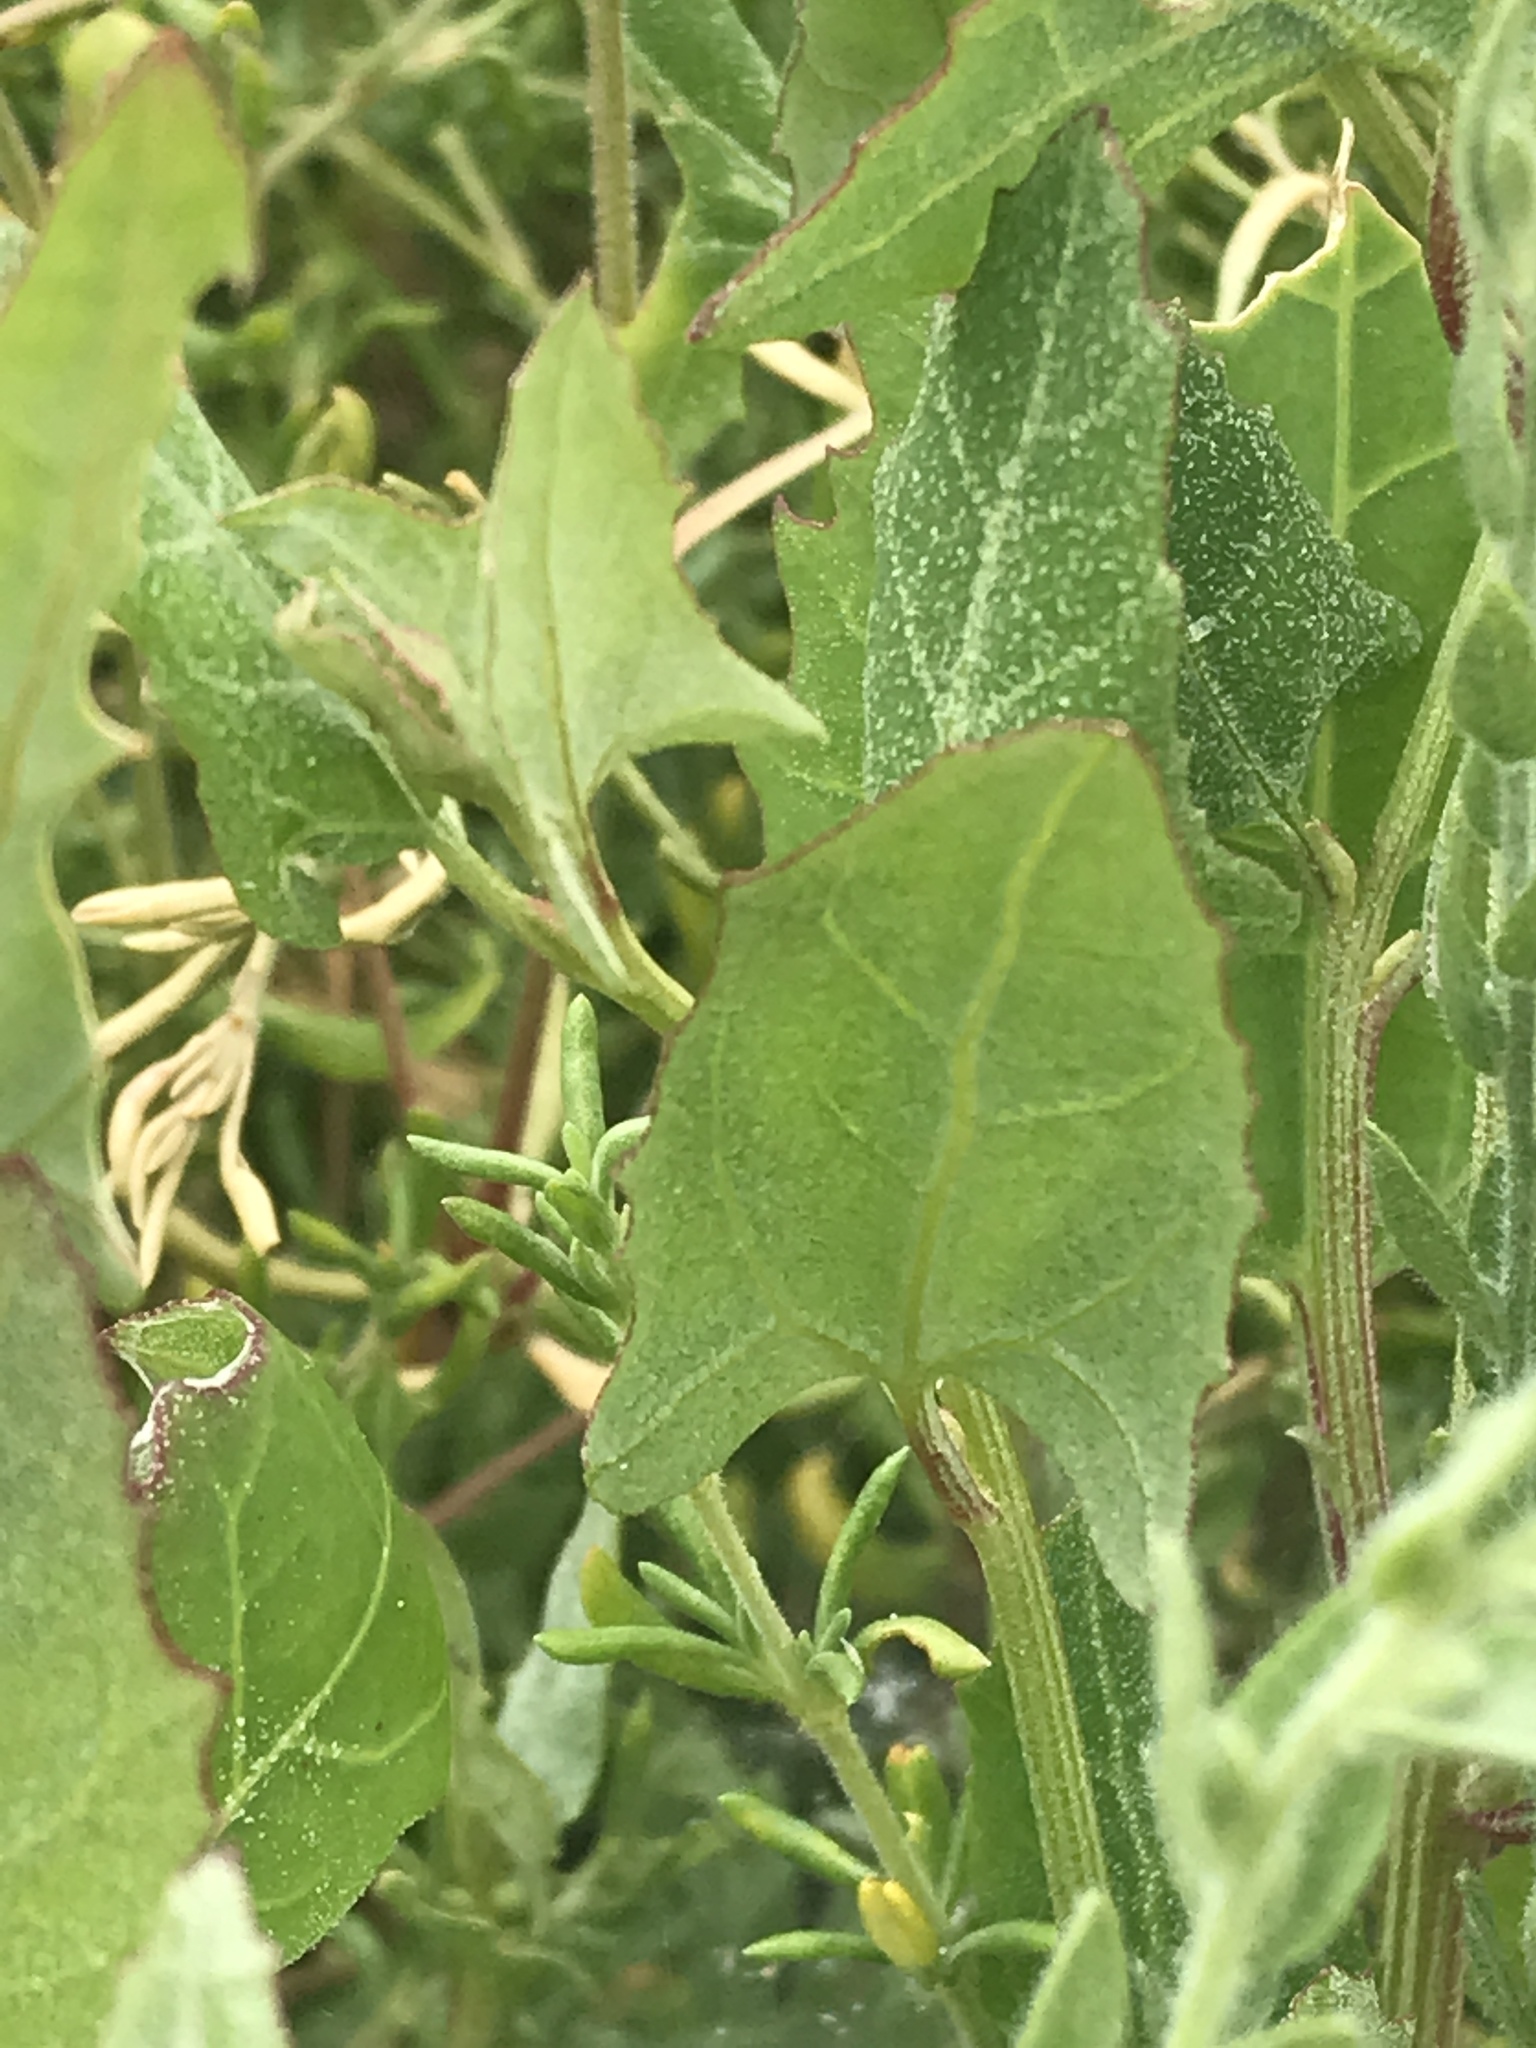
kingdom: Plantae
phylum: Tracheophyta
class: Magnoliopsida
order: Caryophyllales
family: Amaranthaceae
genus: Atriplex
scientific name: Atriplex prostrata
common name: Spear-leaved orache
